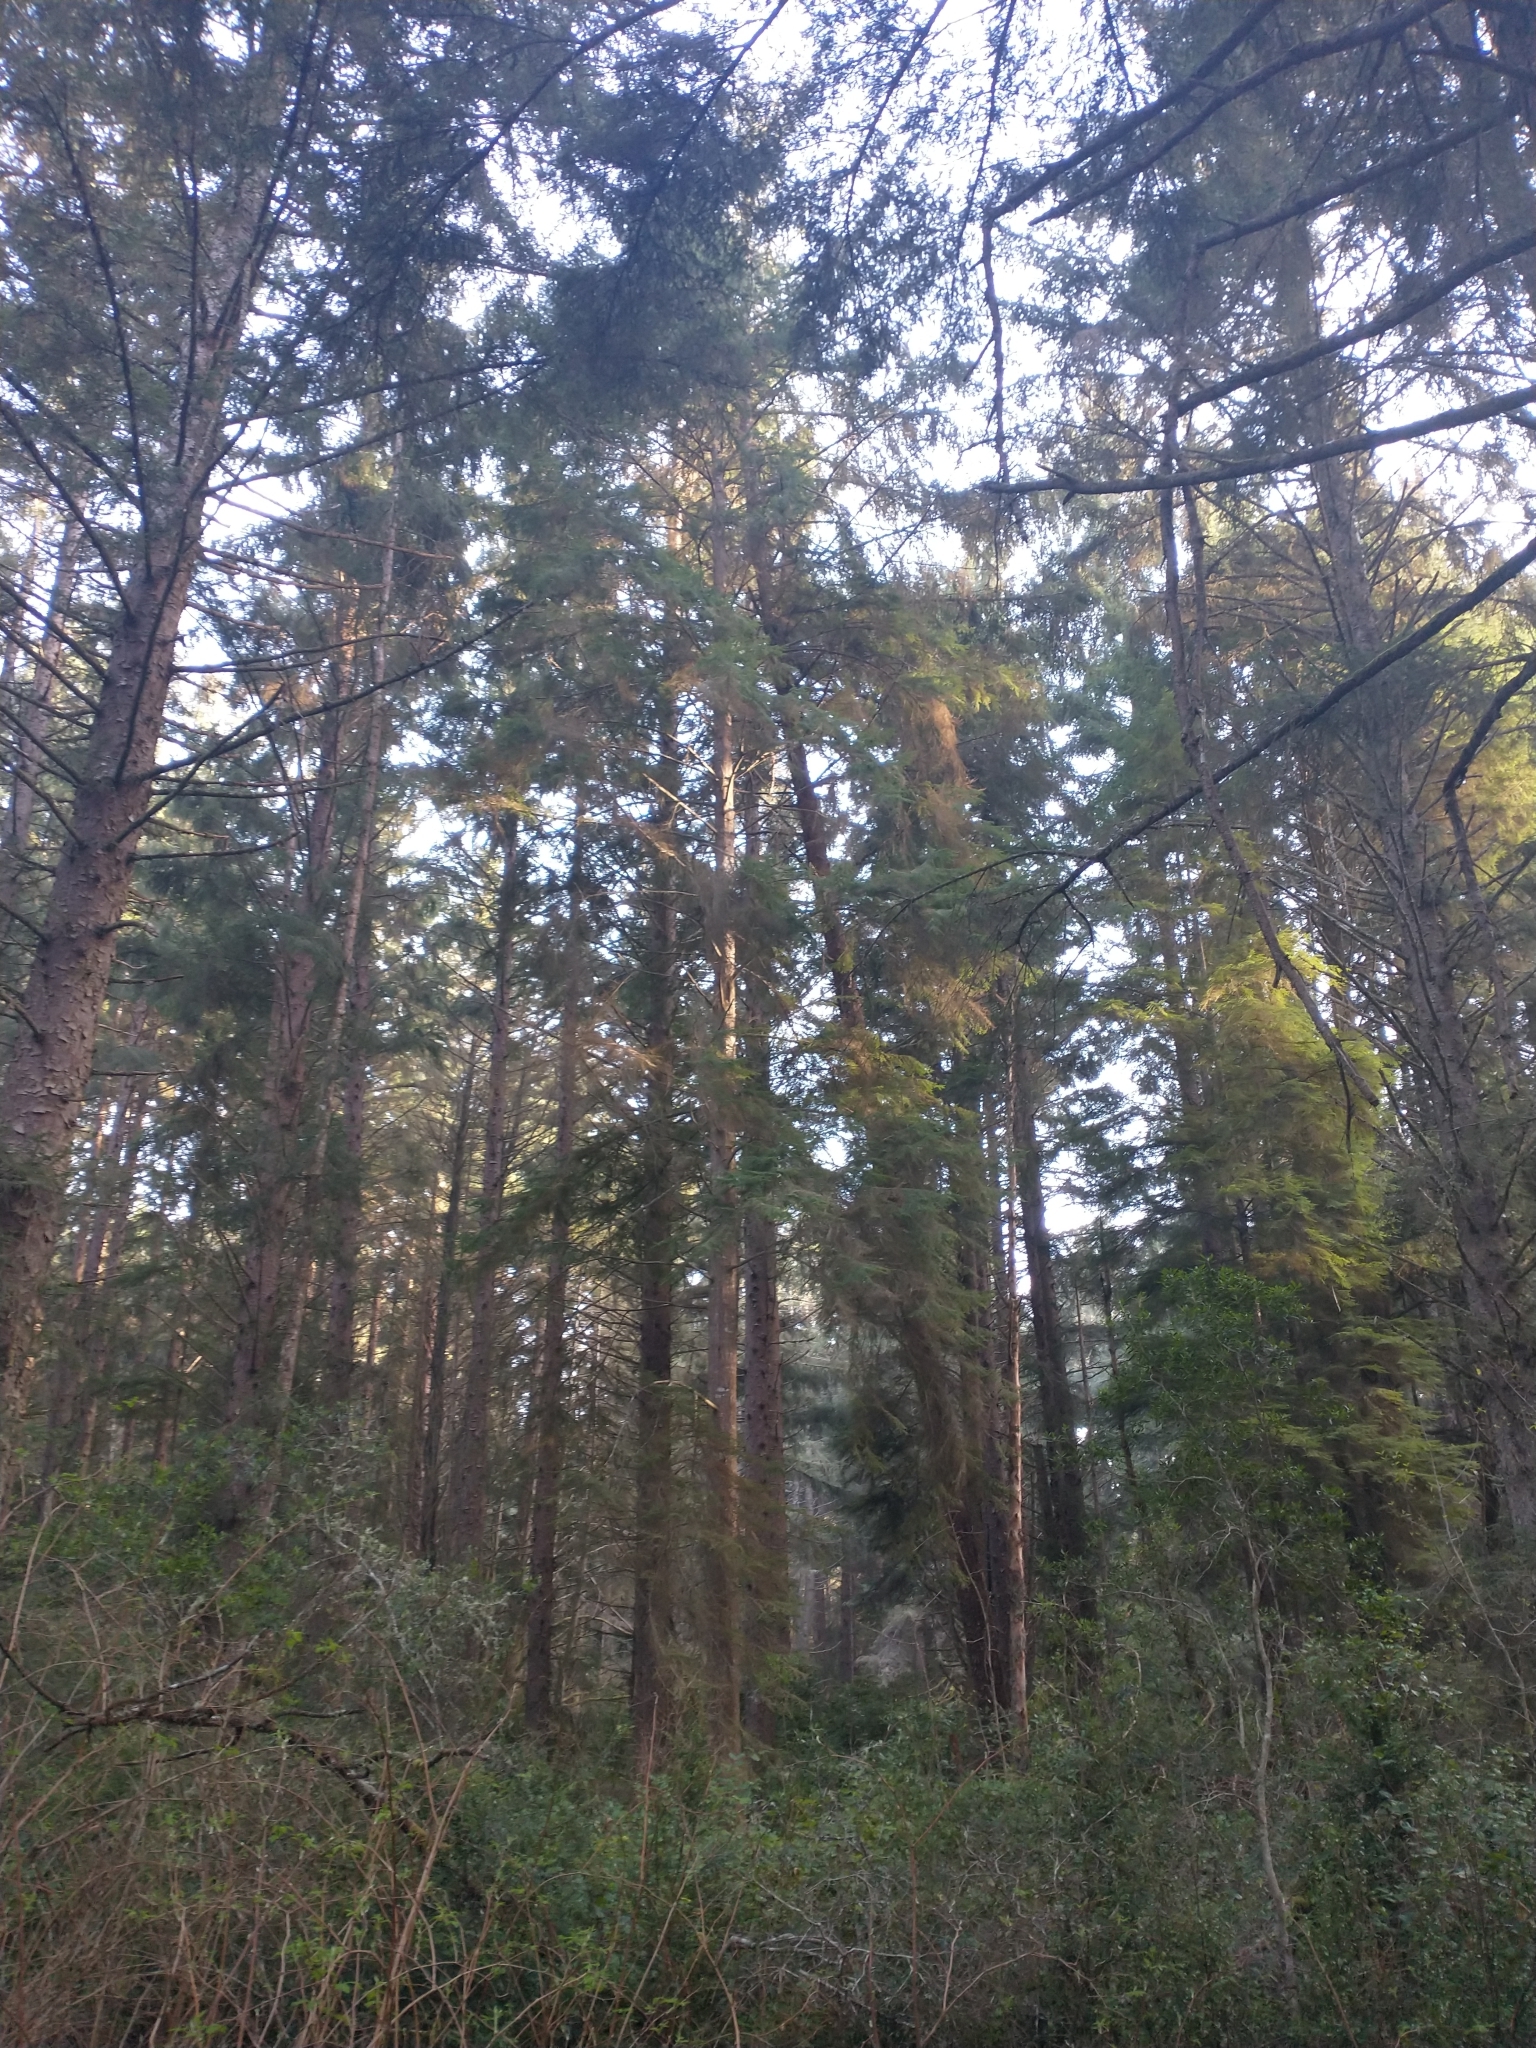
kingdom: Plantae
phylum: Tracheophyta
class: Pinopsida
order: Pinales
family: Pinaceae
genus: Tsuga
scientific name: Tsuga heterophylla
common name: Western hemlock
